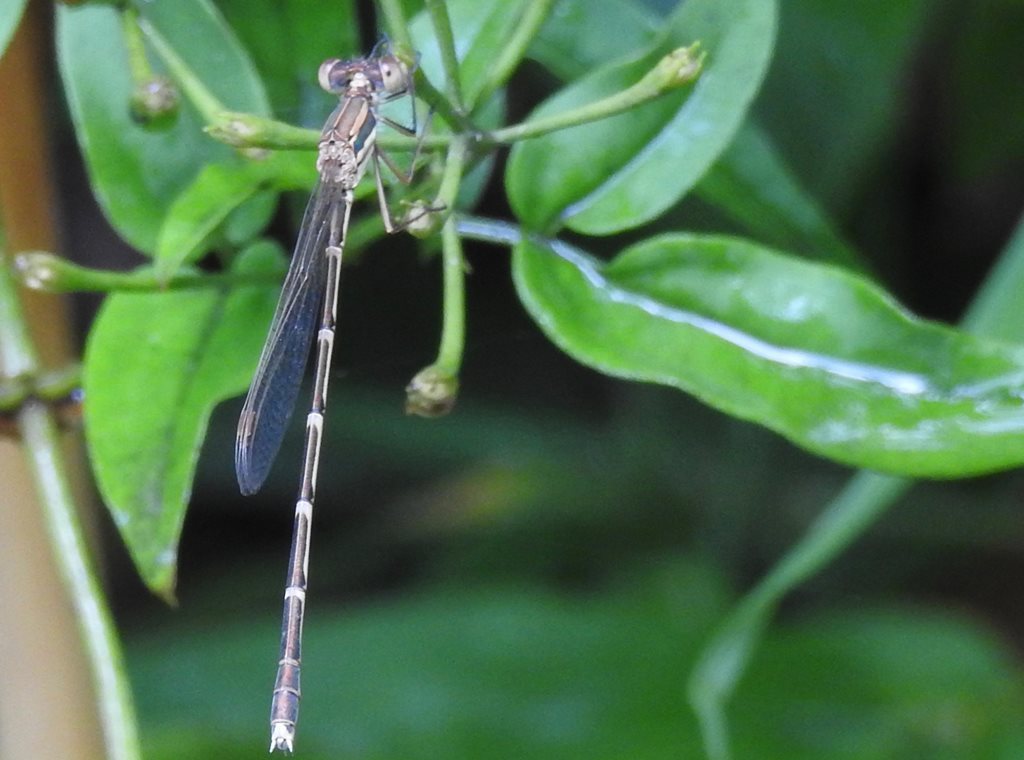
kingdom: Animalia
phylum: Arthropoda
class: Insecta
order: Odonata
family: Lestidae
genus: Austrolestes
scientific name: Austrolestes analis
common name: Slender ringtail
